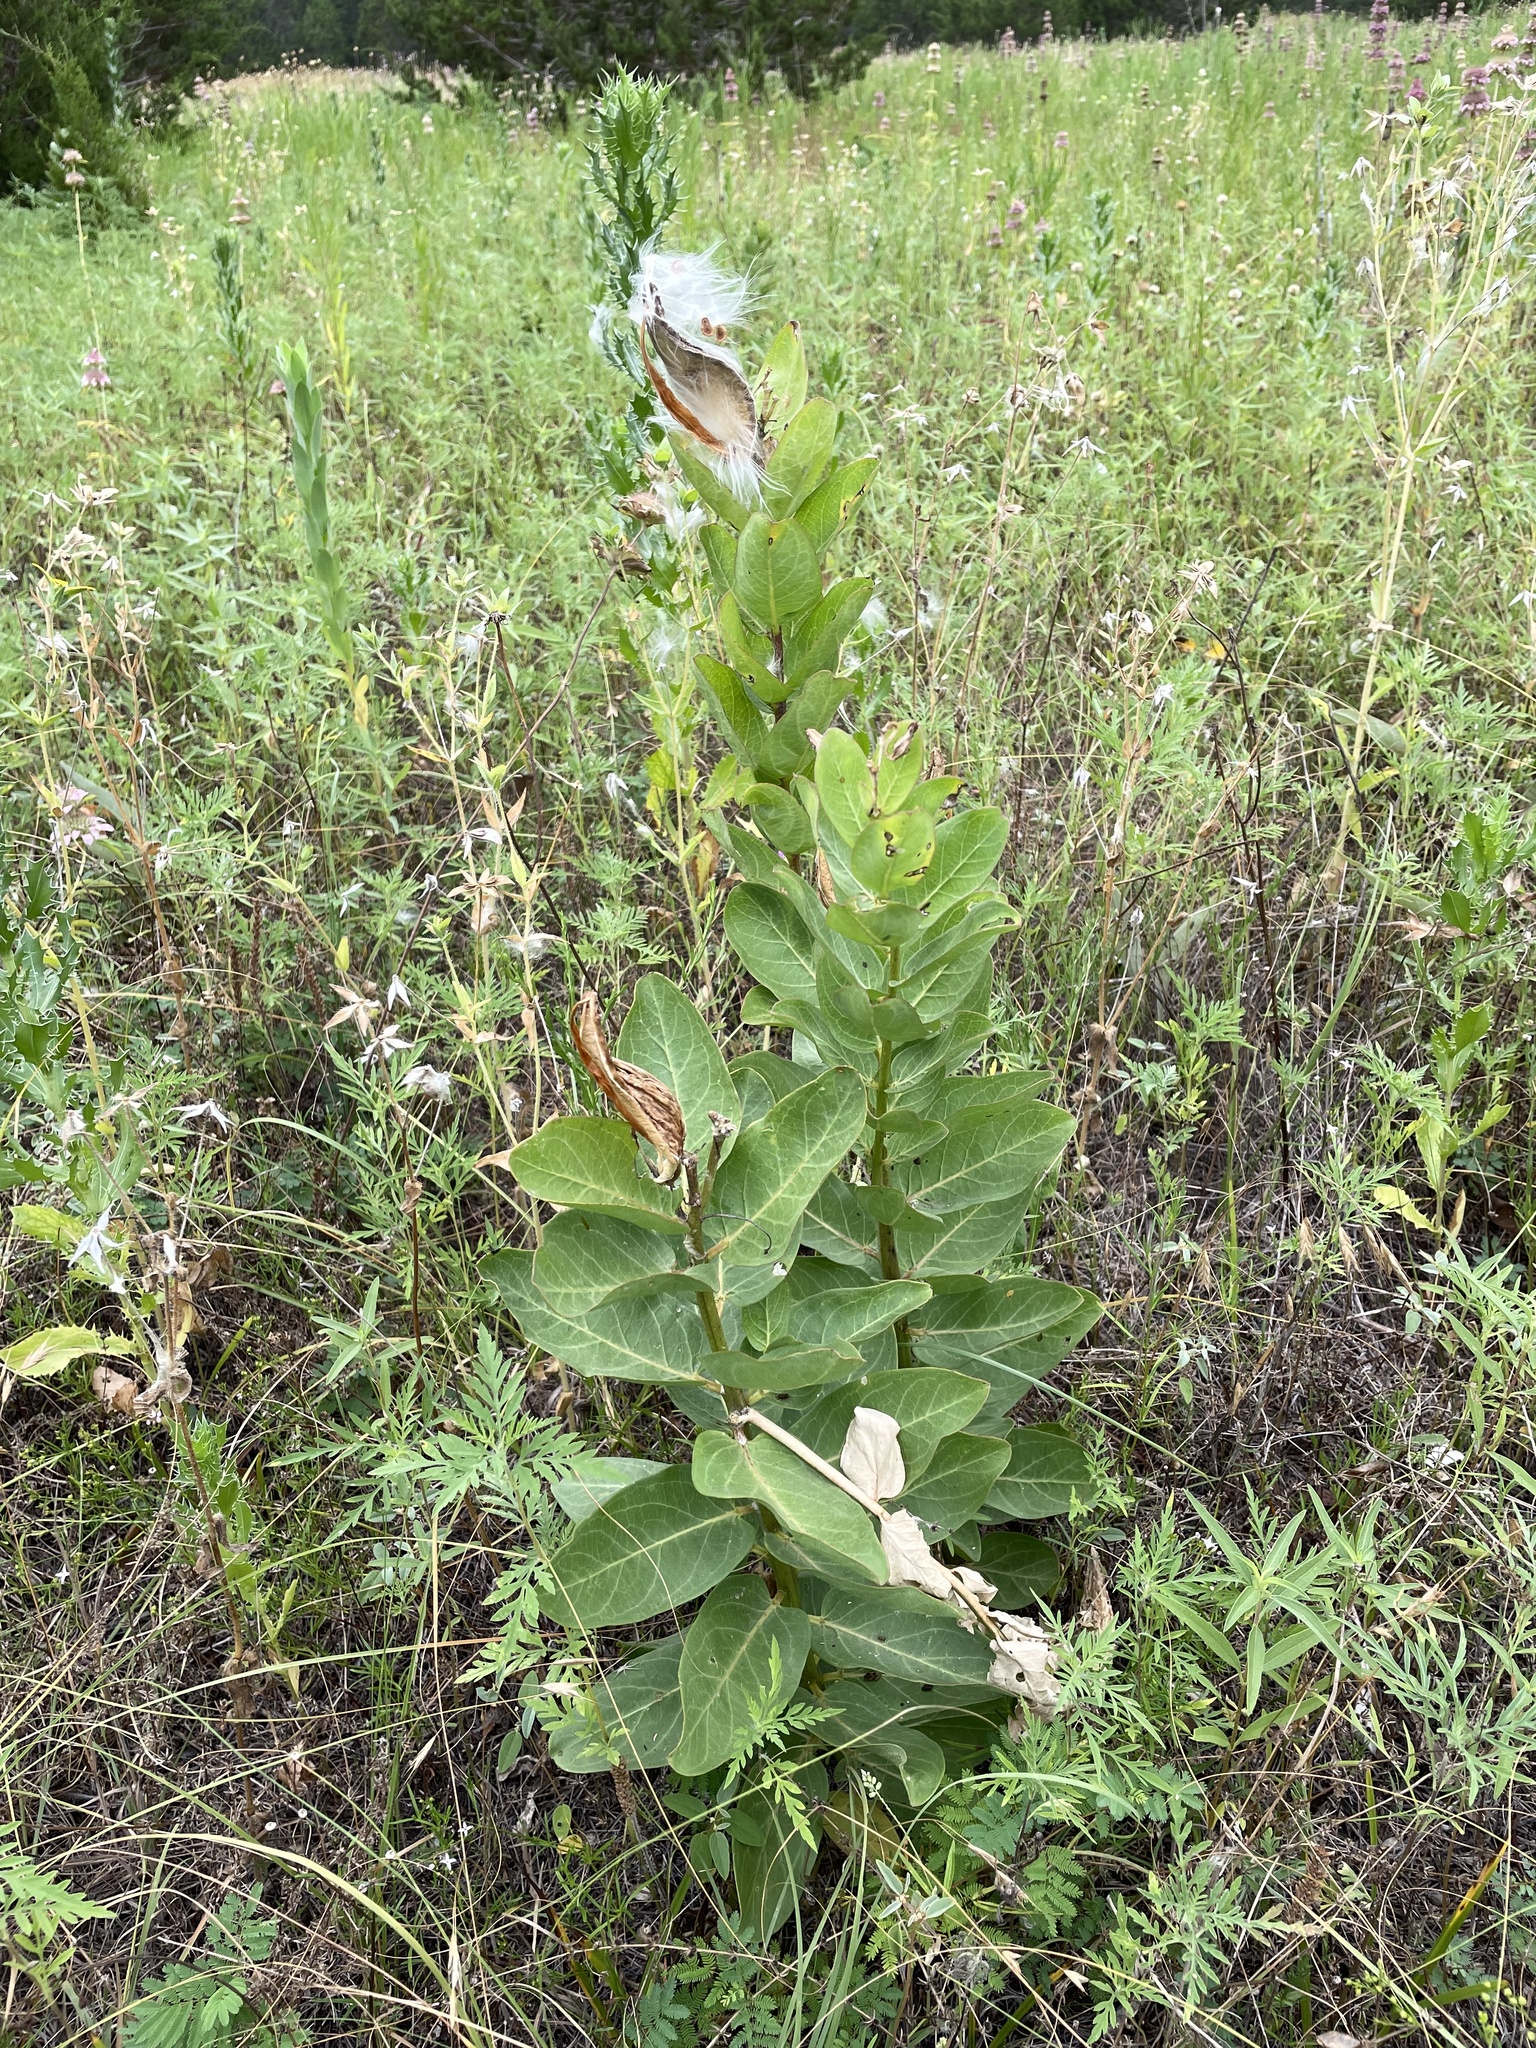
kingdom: Plantae
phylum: Tracheophyta
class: Magnoliopsida
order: Gentianales
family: Apocynaceae
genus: Asclepias
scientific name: Asclepias viridis
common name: Antelope-horns
